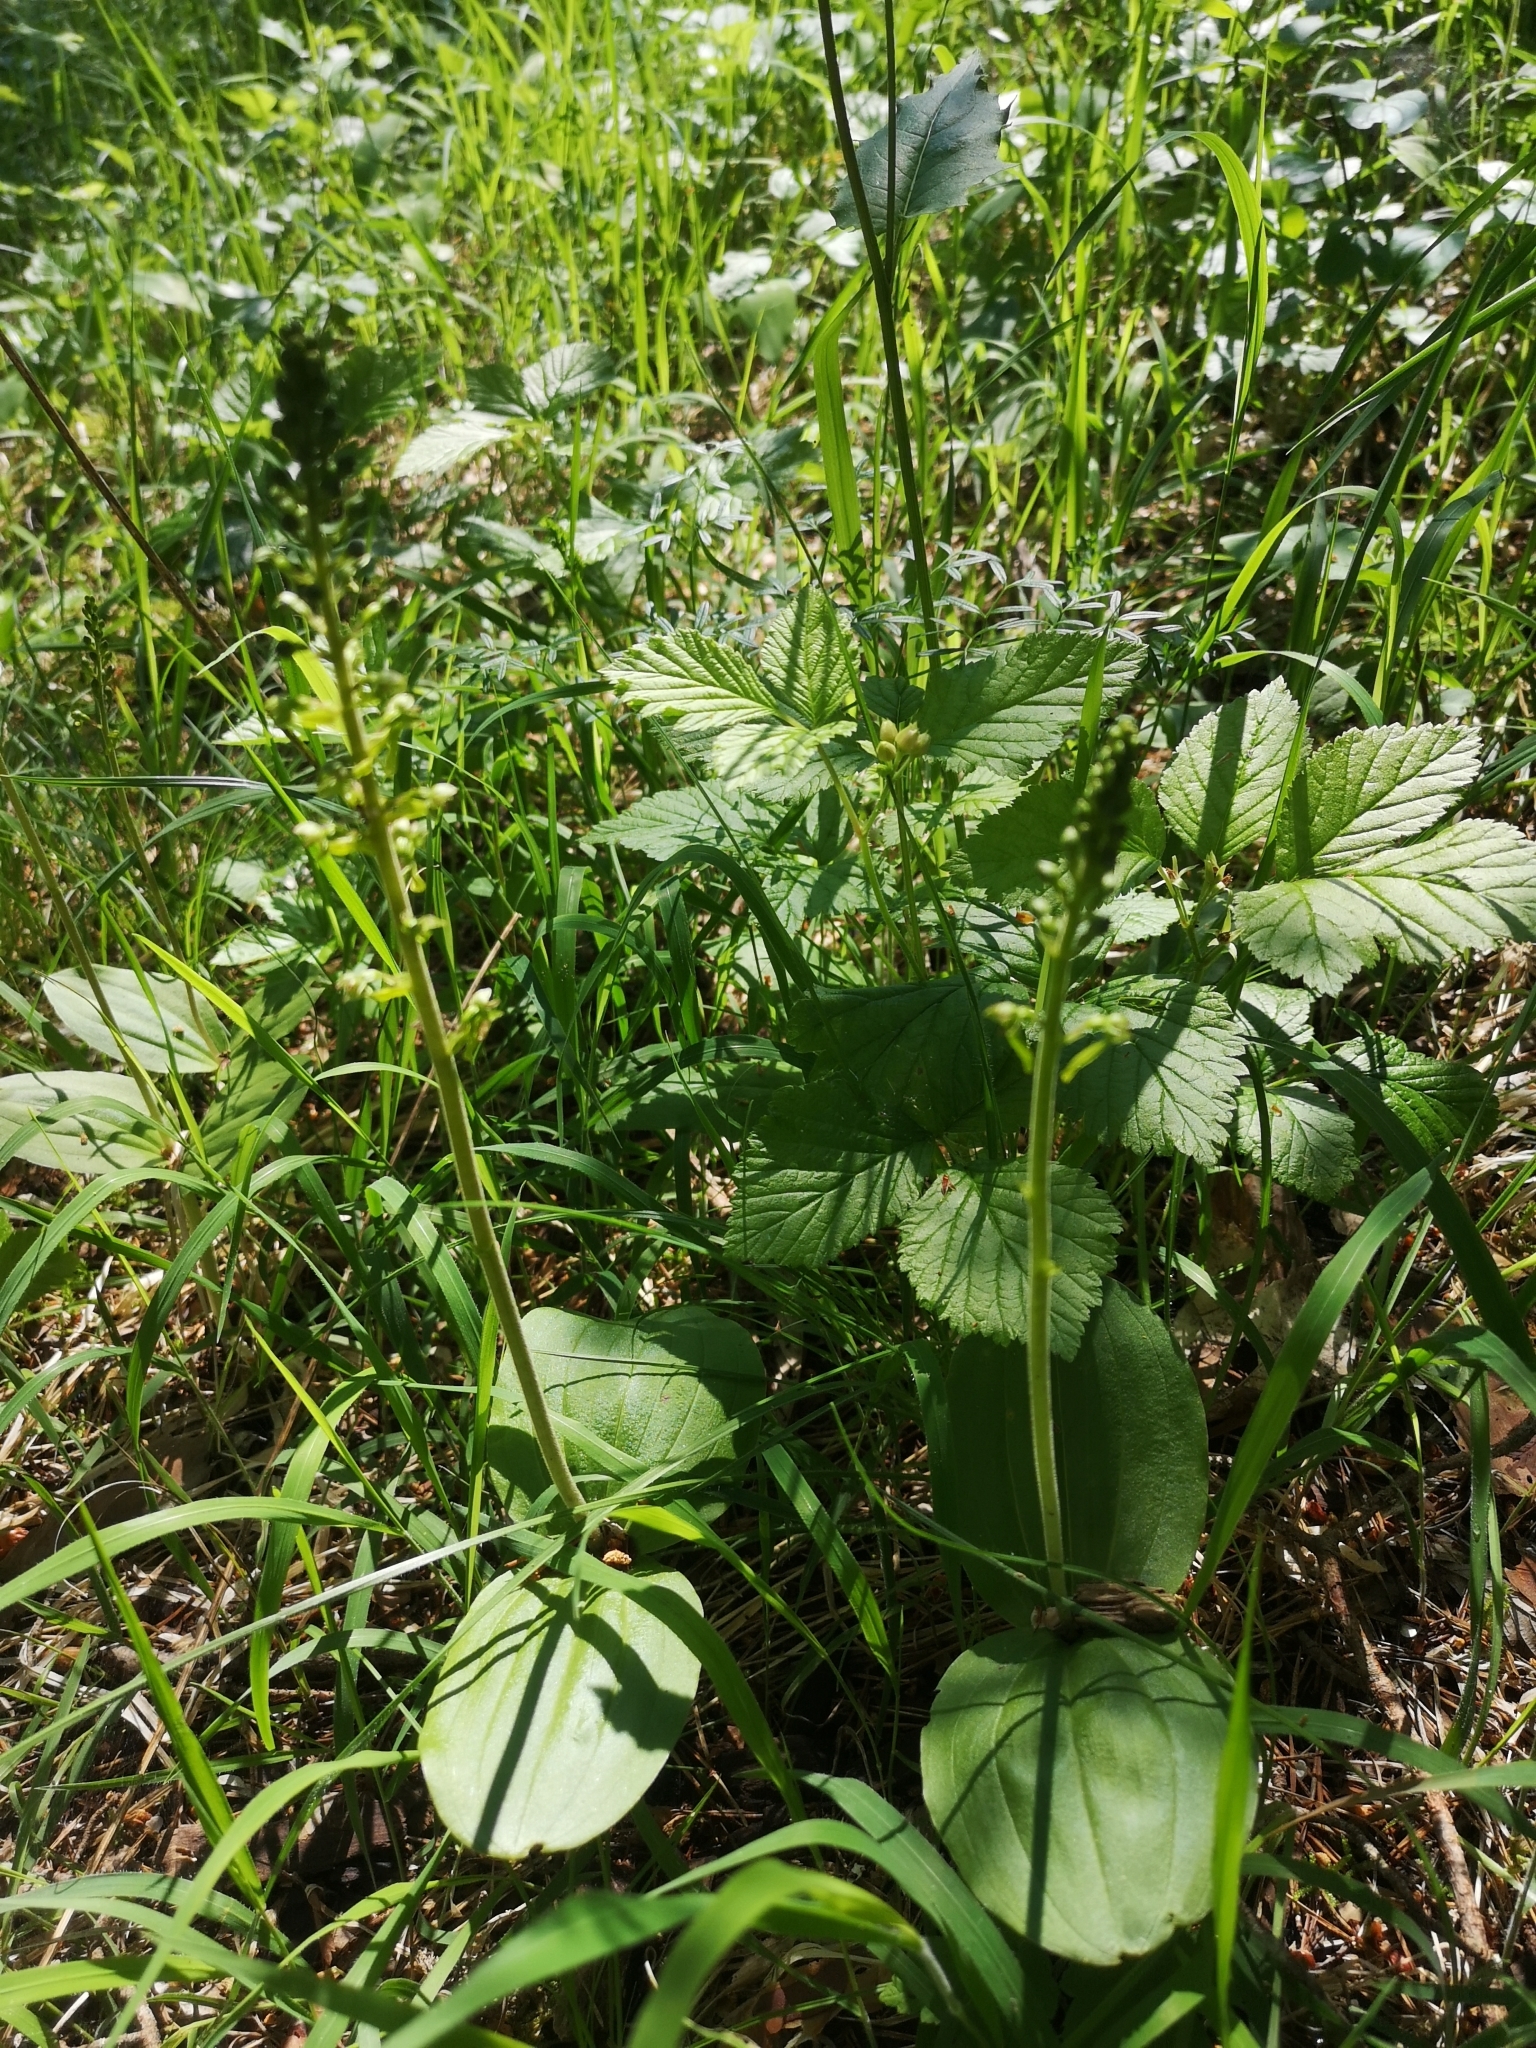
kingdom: Plantae
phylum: Tracheophyta
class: Liliopsida
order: Asparagales
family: Orchidaceae
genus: Neottia
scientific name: Neottia ovata
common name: Common twayblade
